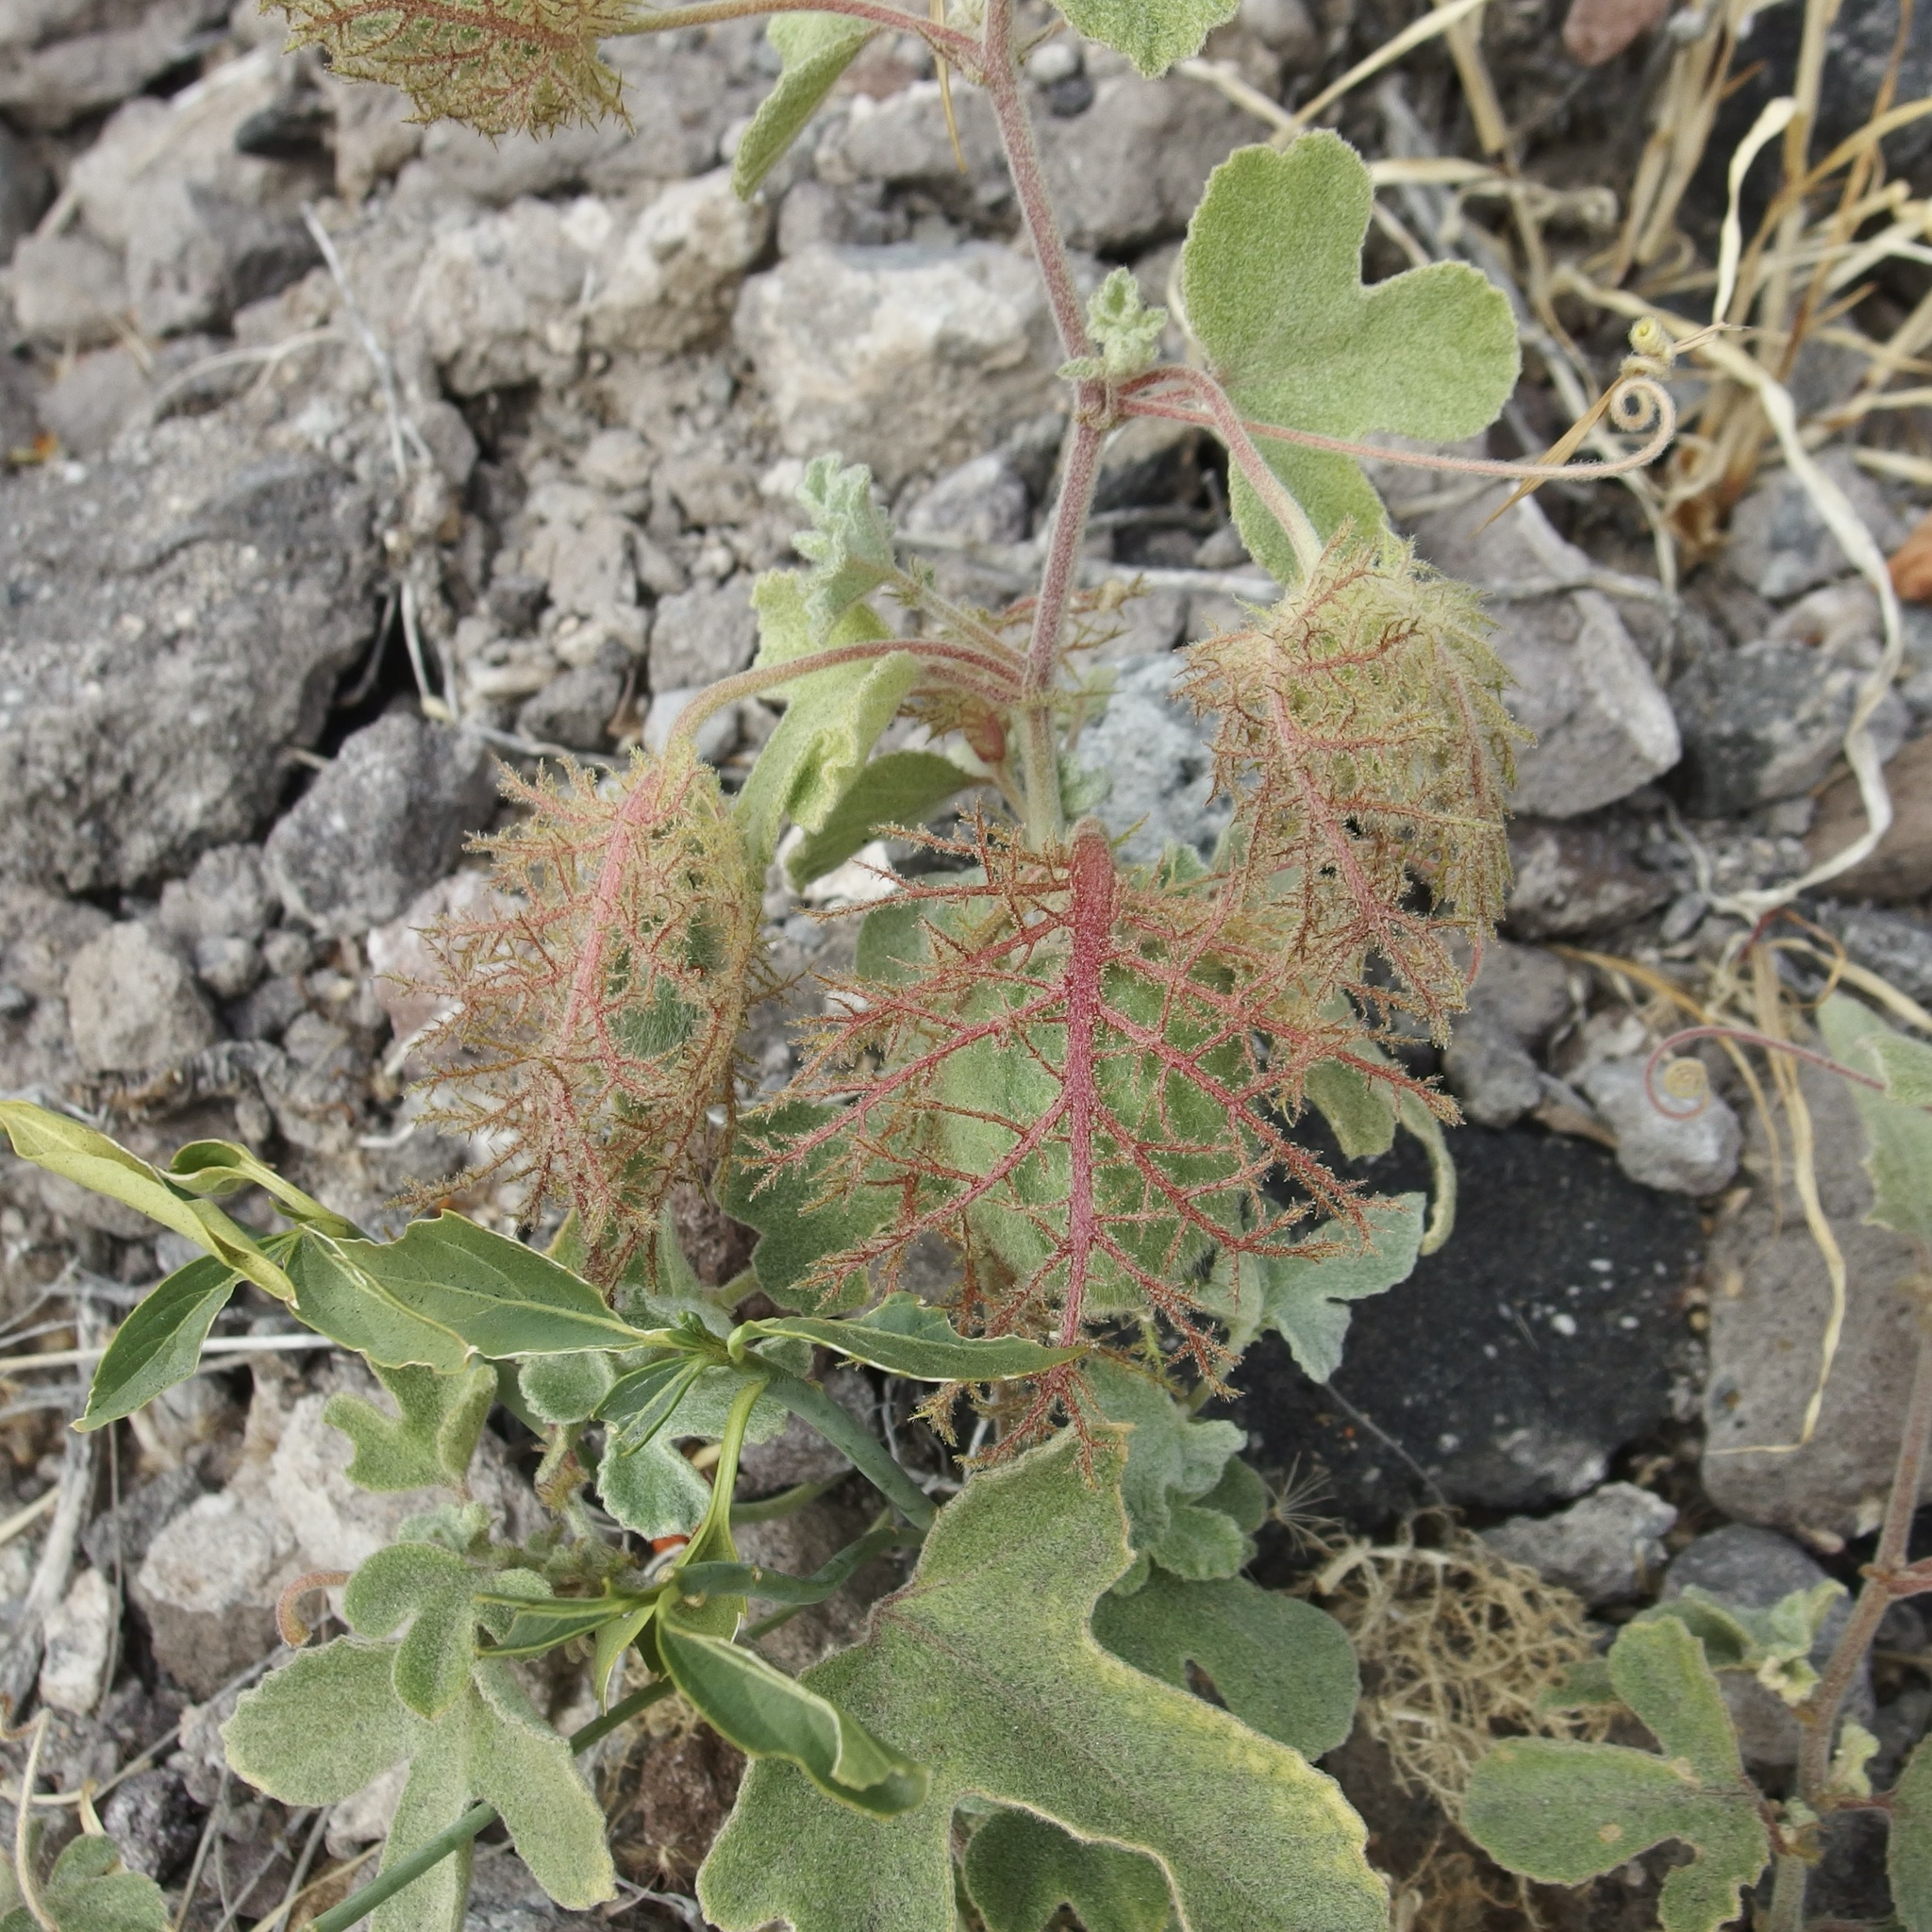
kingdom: Plantae
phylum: Tracheophyta
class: Magnoliopsida
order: Malpighiales
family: Passifloraceae
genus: Passiflora
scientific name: Passiflora arida
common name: Desert passionflower
